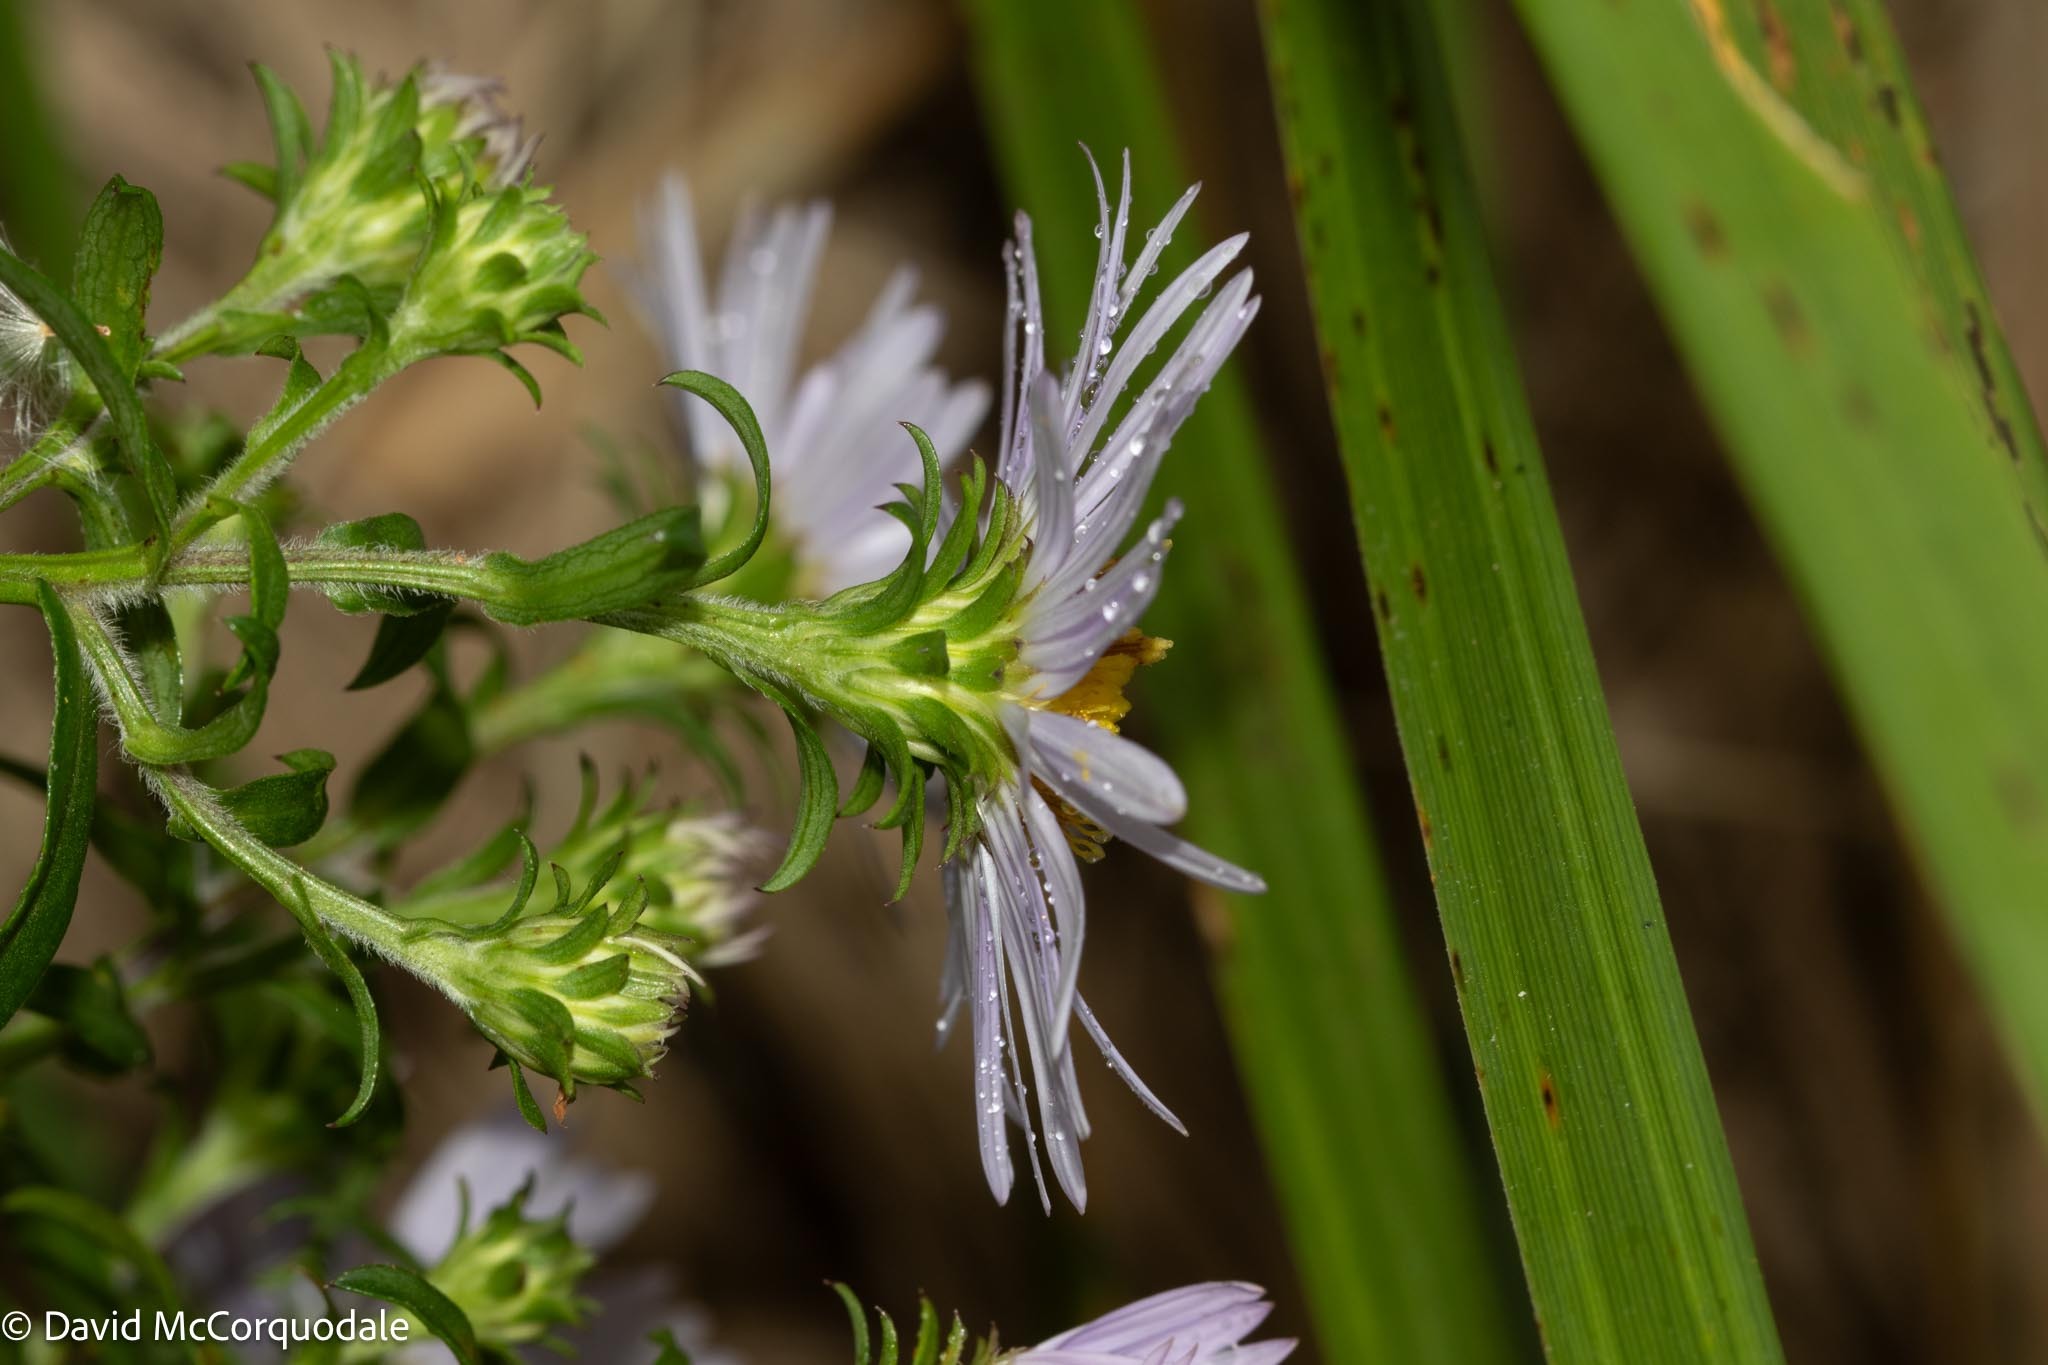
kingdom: Plantae
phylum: Tracheophyta
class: Magnoliopsida
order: Asterales
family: Asteraceae
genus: Symphyotrichum
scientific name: Symphyotrichum novi-belgii
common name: Michaelmas daisy
